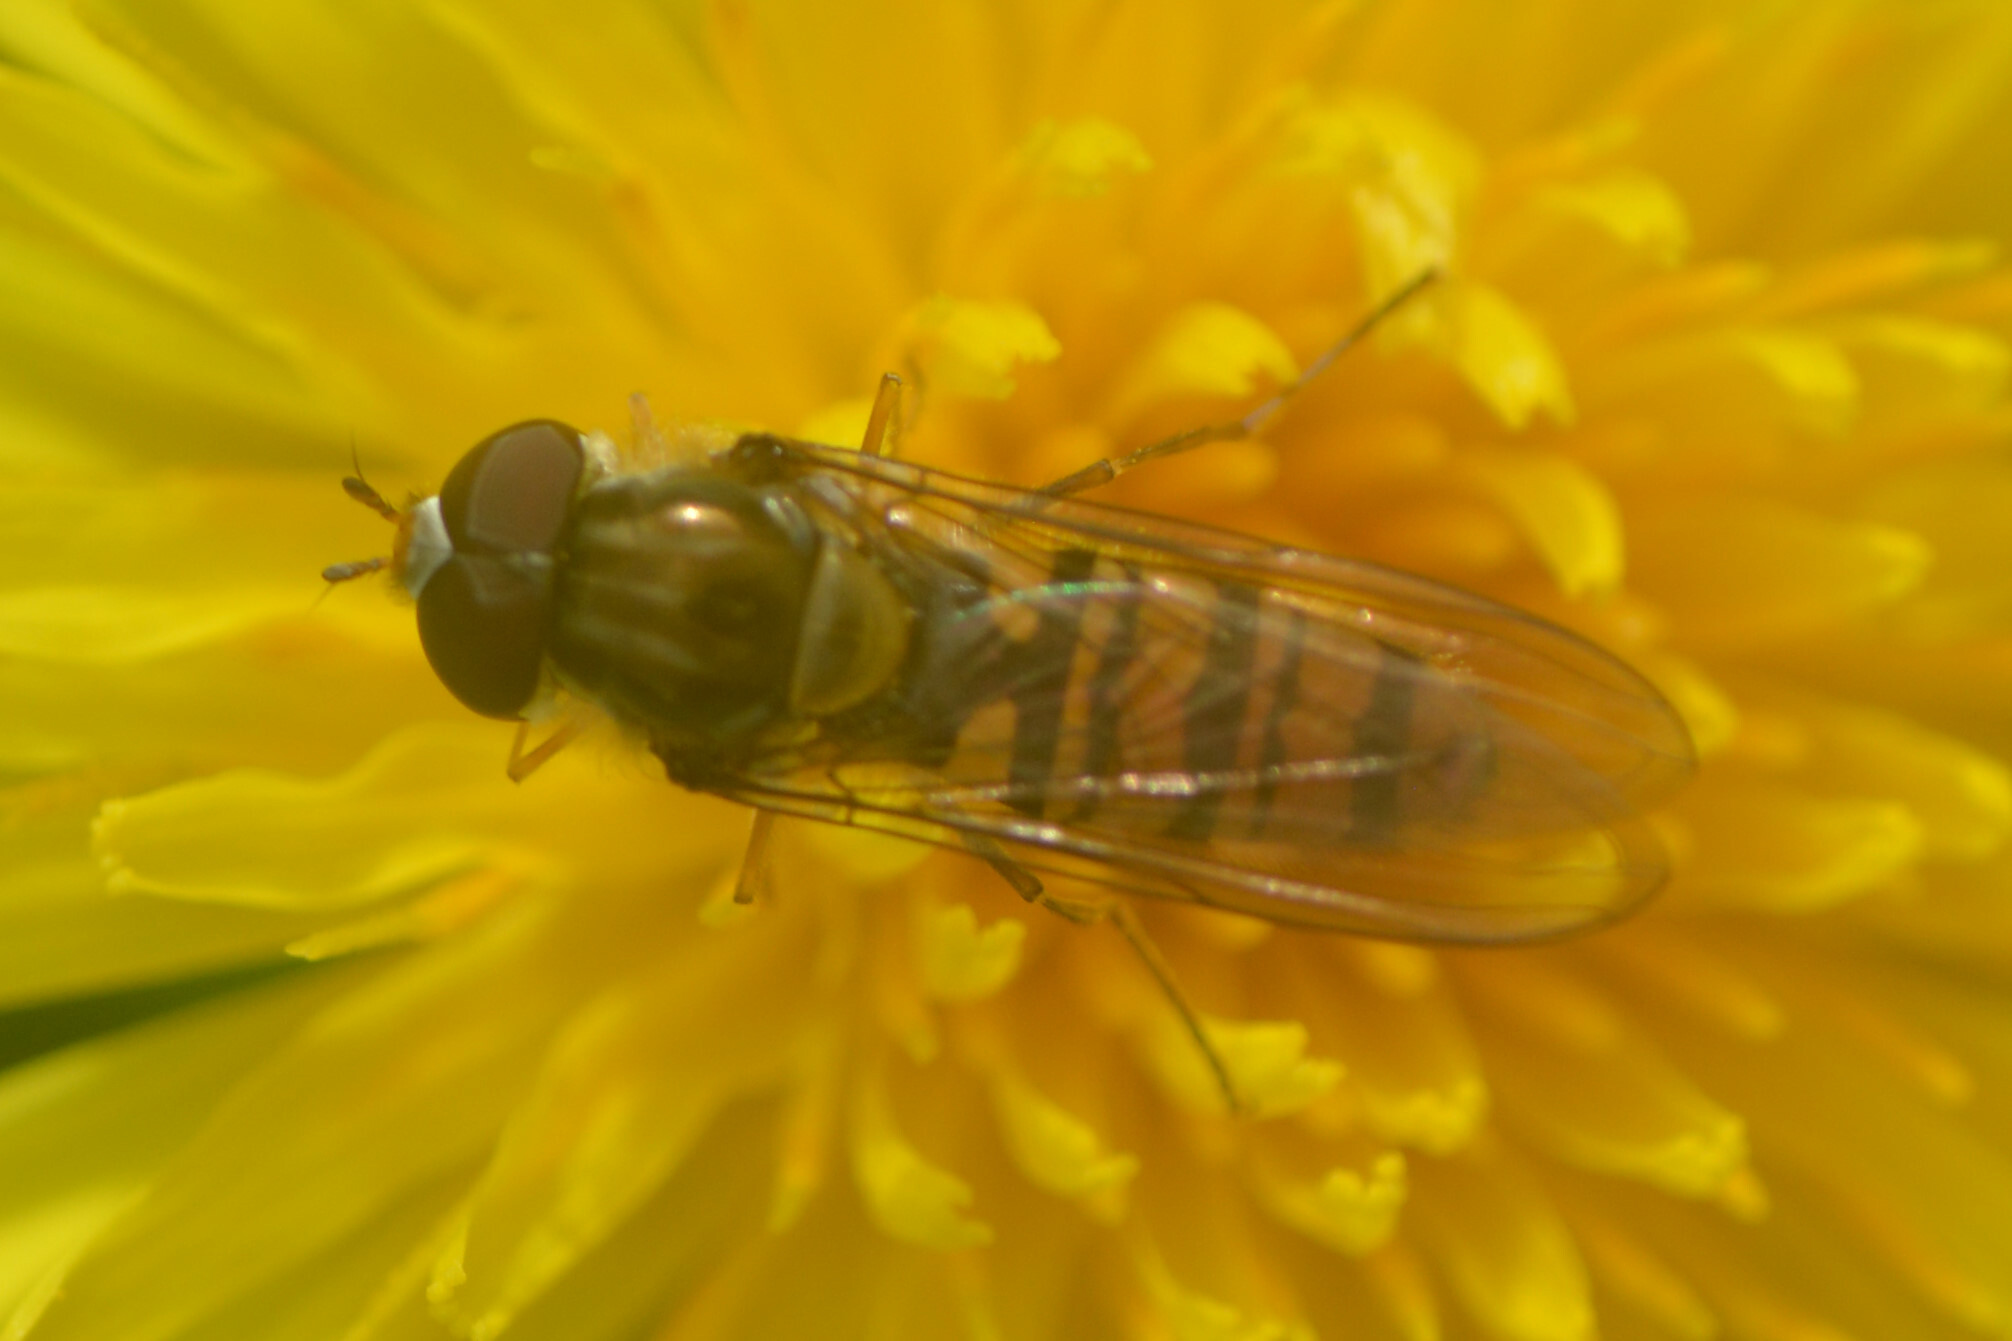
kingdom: Animalia
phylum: Arthropoda
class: Insecta
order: Diptera
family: Syrphidae
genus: Episyrphus
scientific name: Episyrphus balteatus
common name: Marmalade hoverfly
